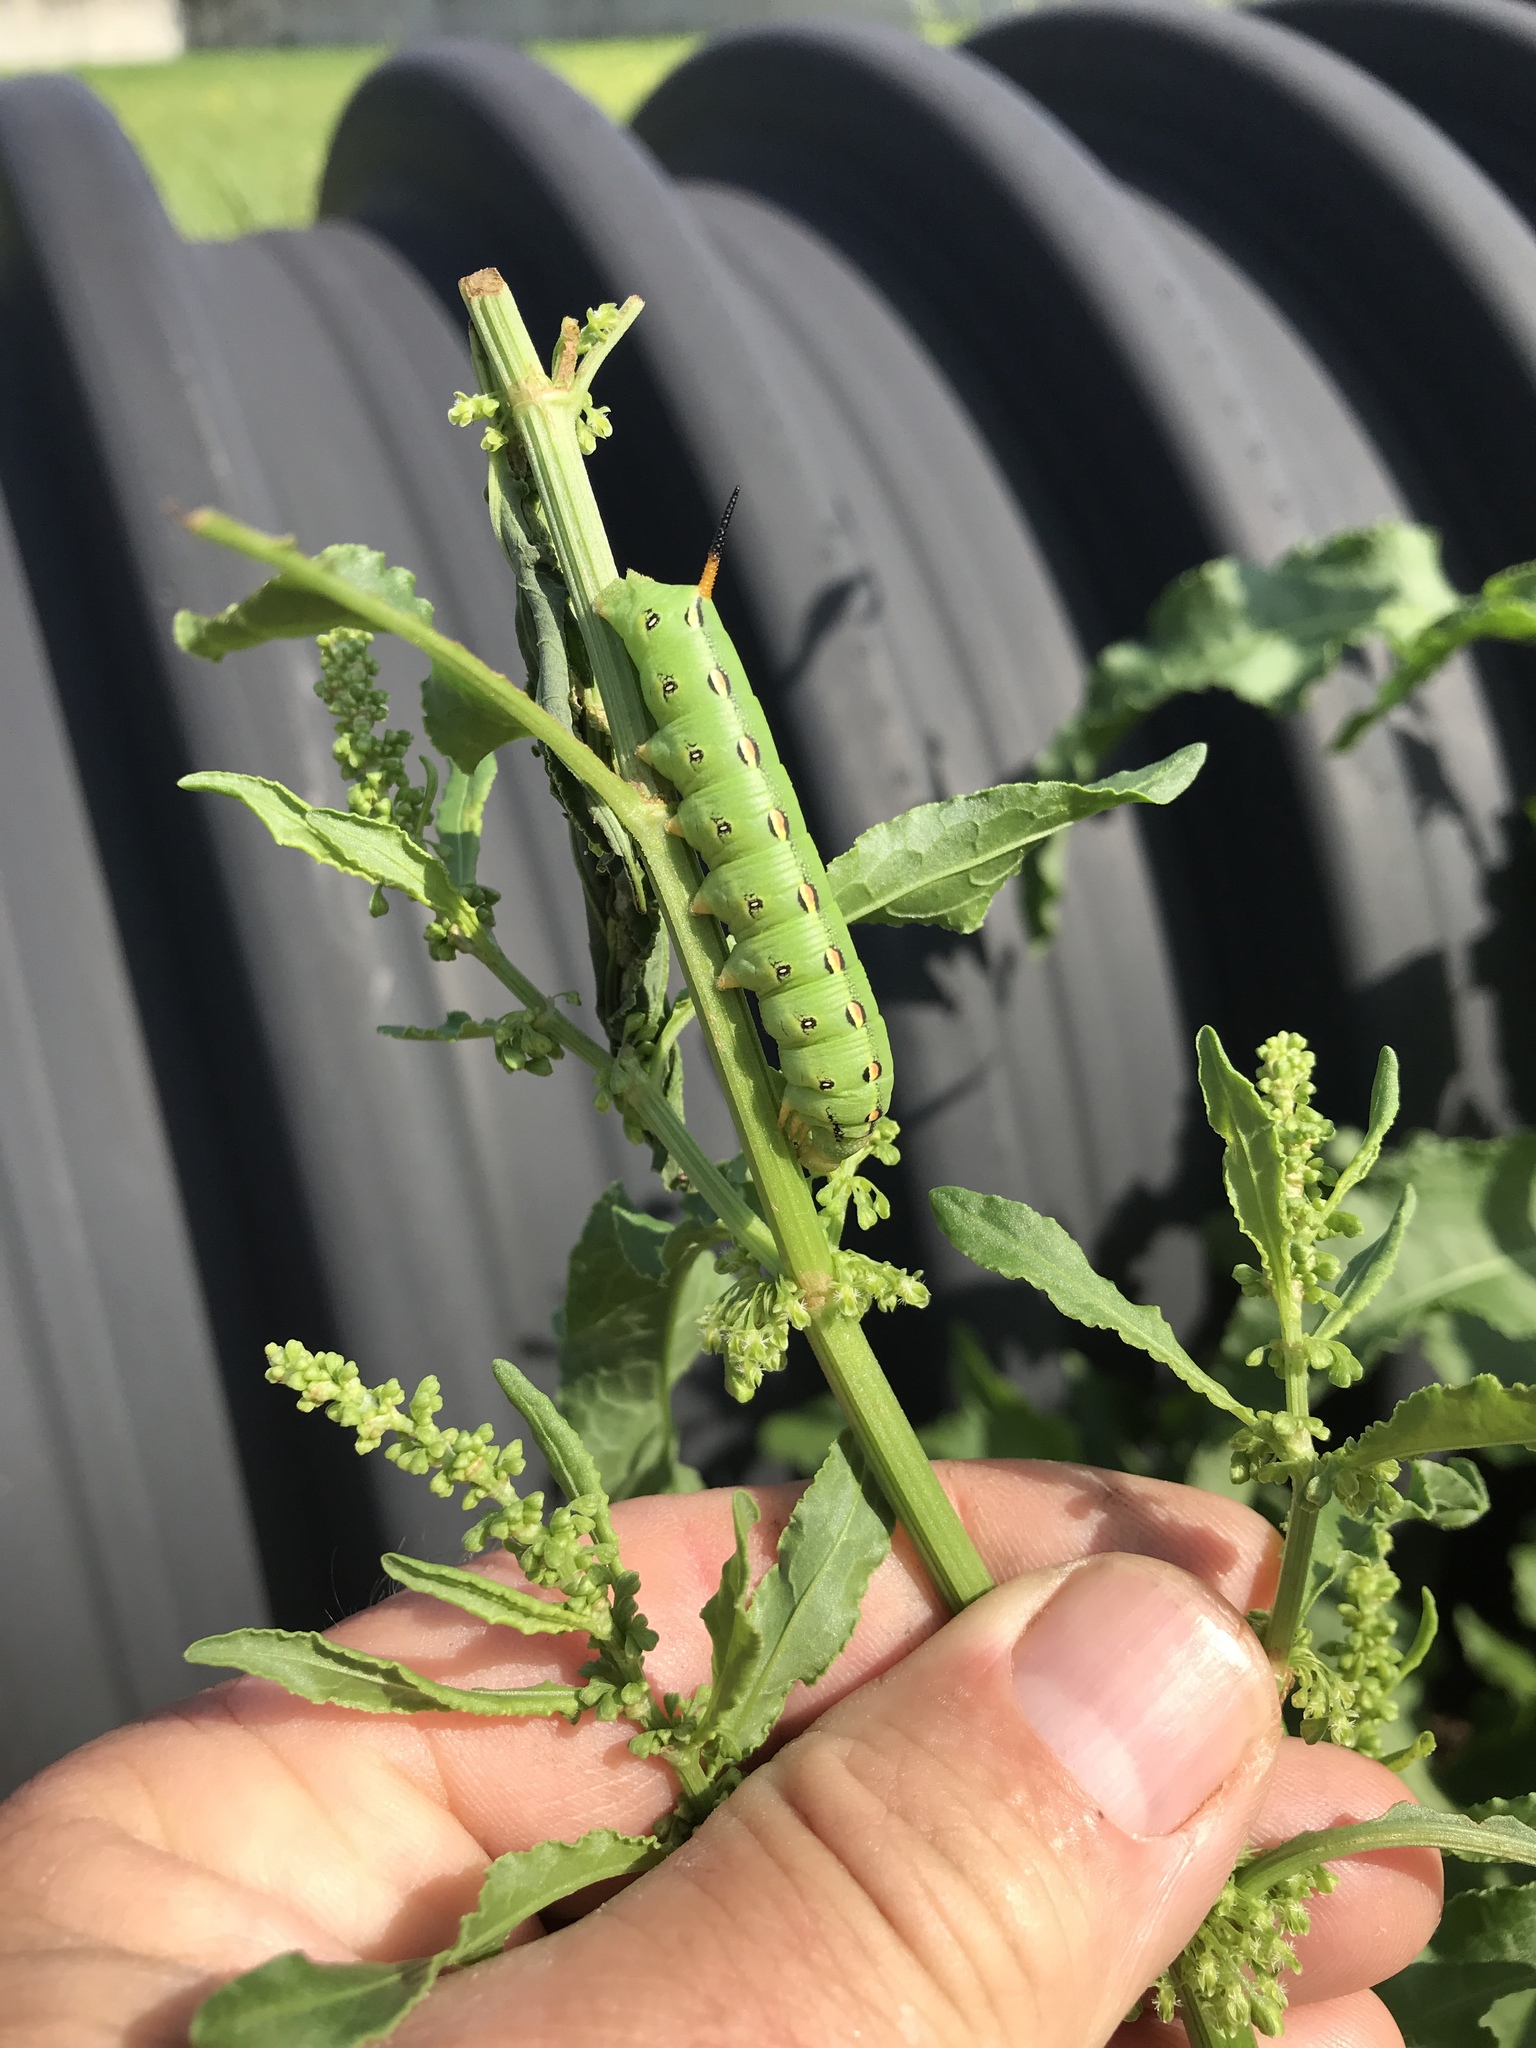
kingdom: Animalia
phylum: Arthropoda
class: Insecta
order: Lepidoptera
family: Sphingidae
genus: Hyles
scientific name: Hyles lineata
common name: White-lined sphinx
